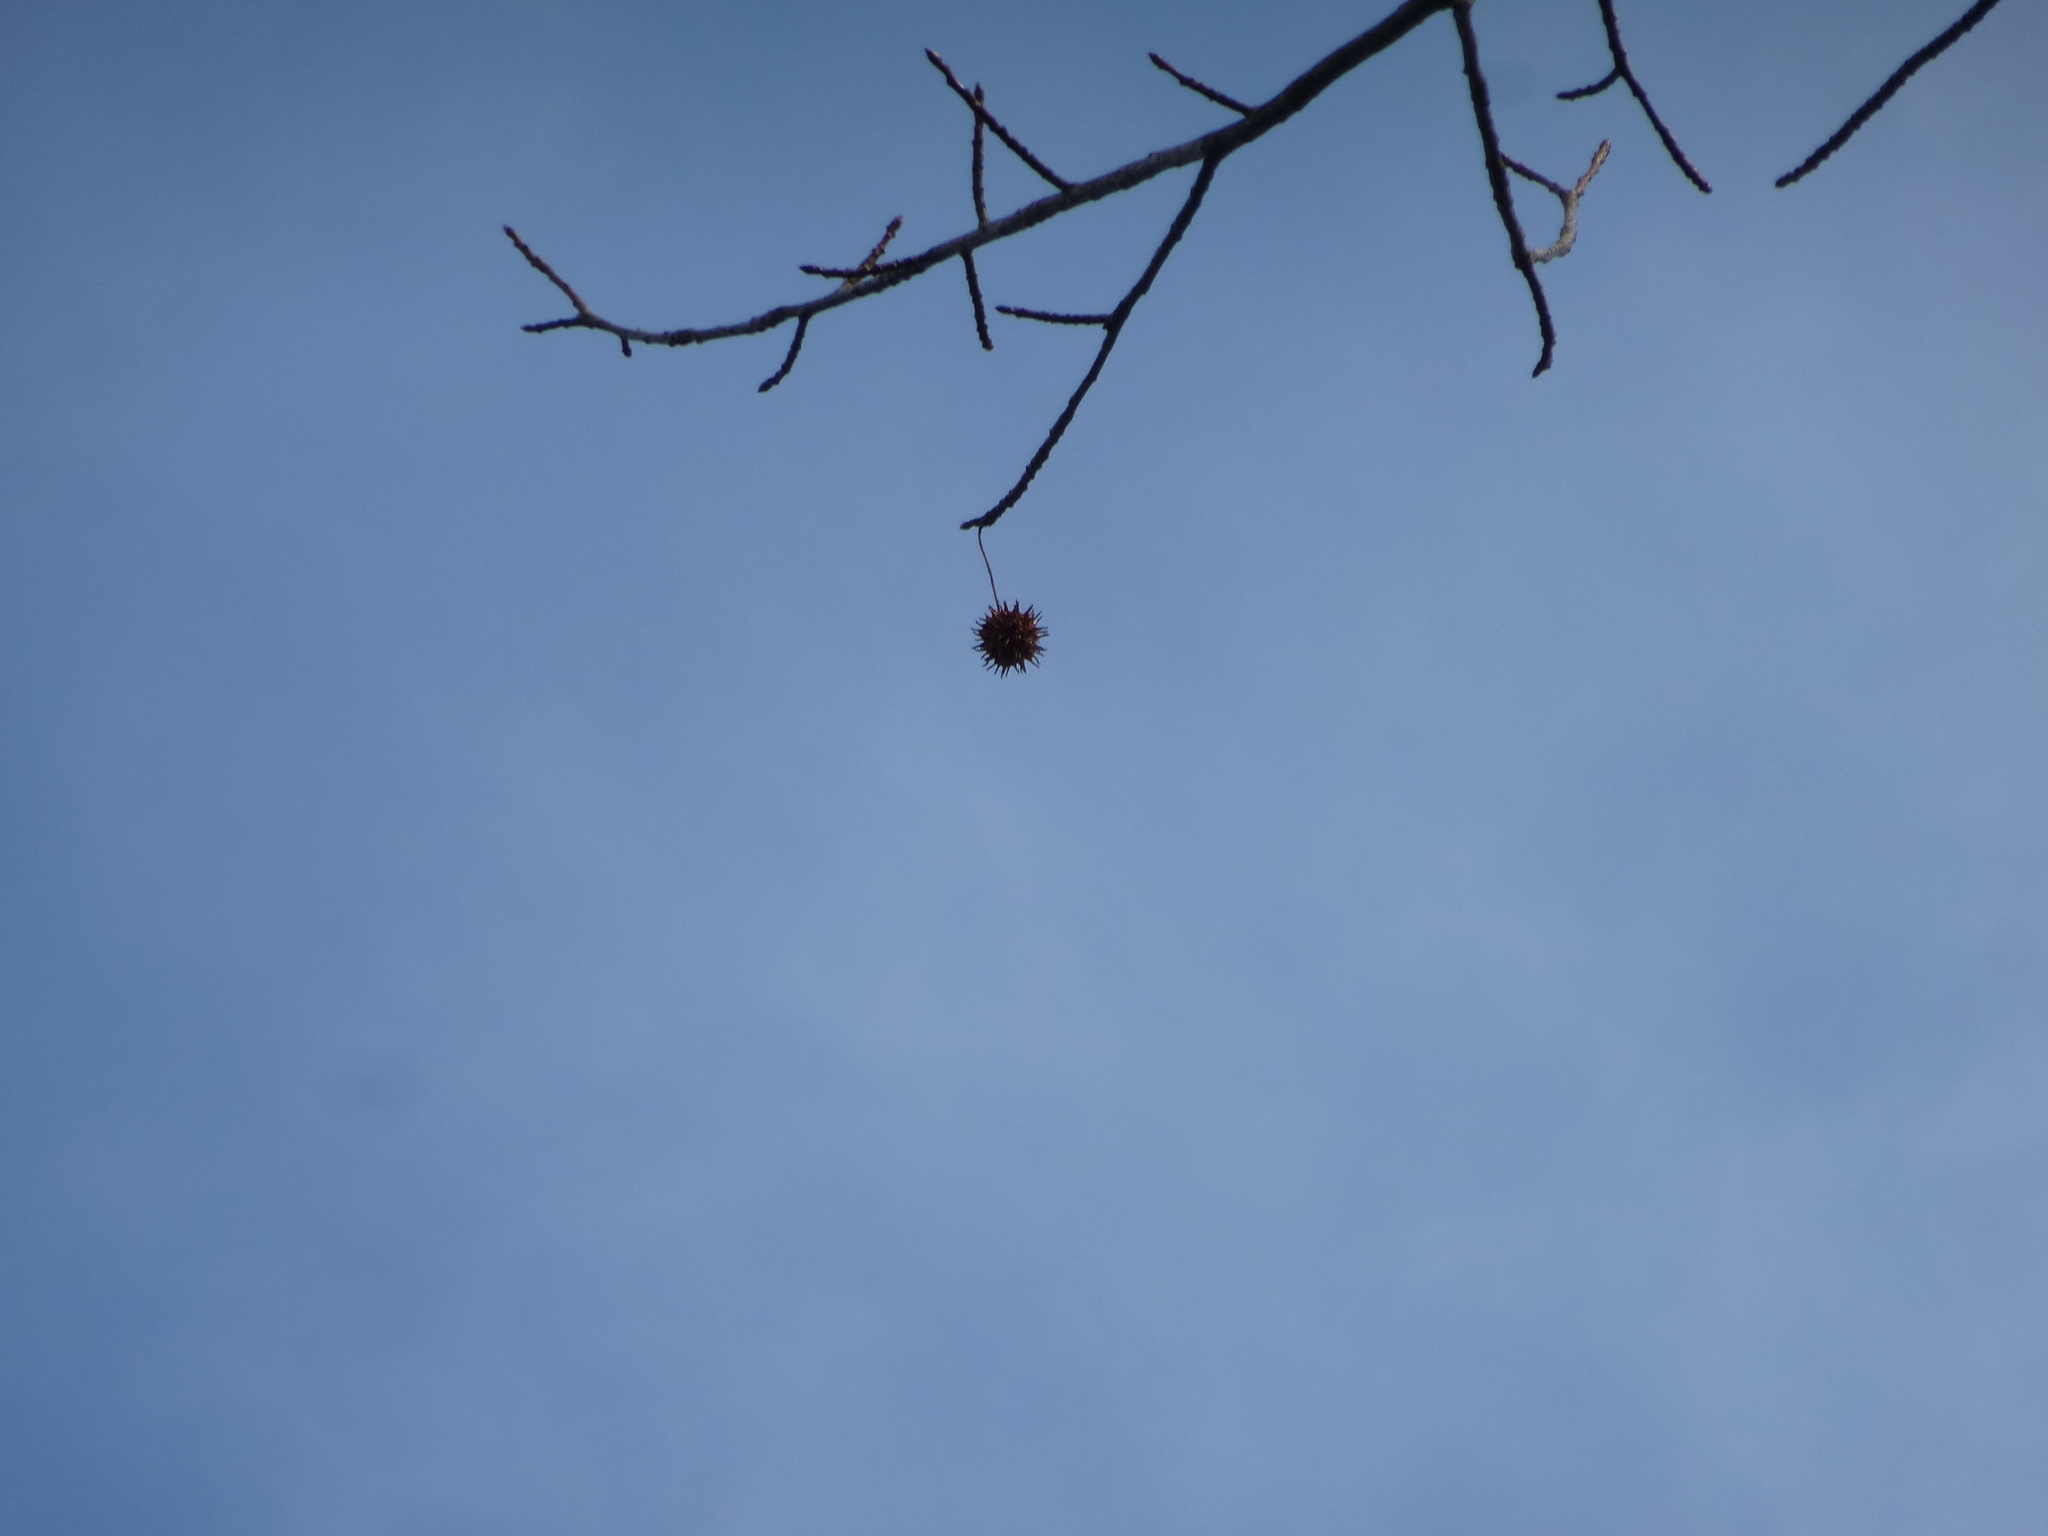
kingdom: Plantae
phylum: Tracheophyta
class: Magnoliopsida
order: Saxifragales
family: Altingiaceae
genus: Liquidambar
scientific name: Liquidambar styraciflua
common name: Sweet gum
